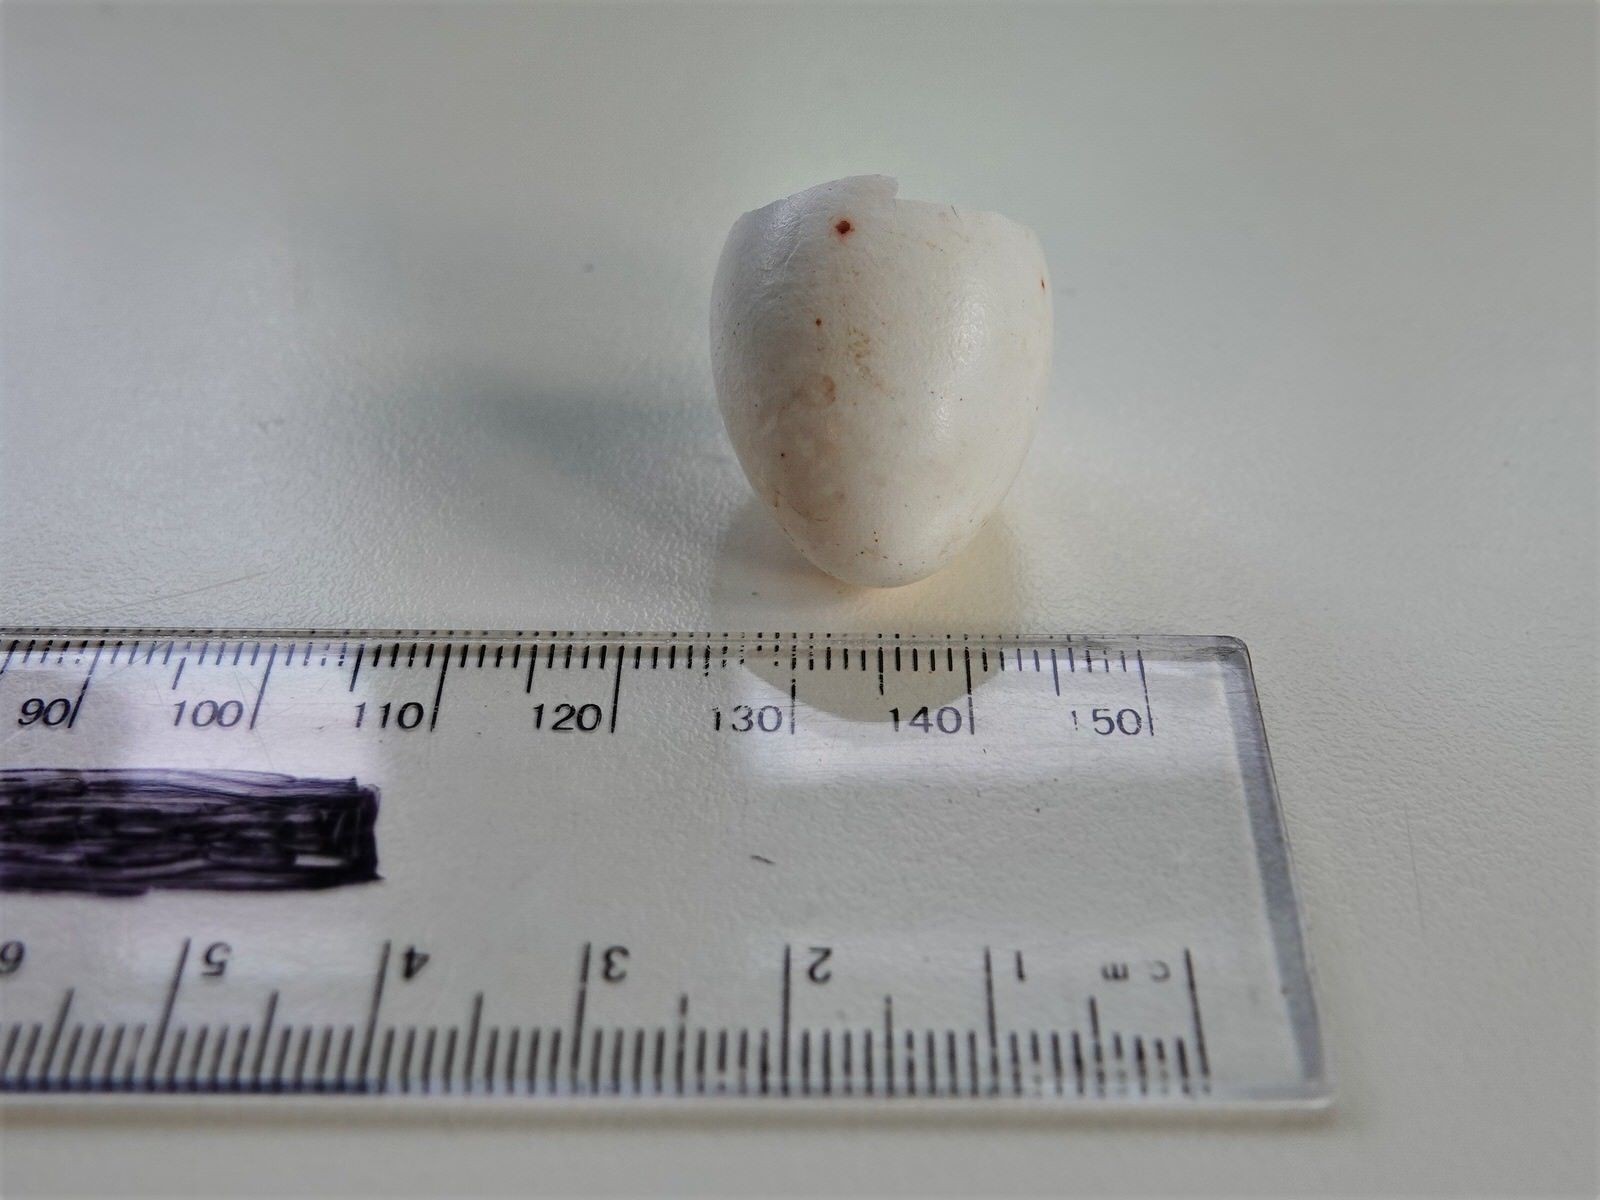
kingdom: Animalia
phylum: Chordata
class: Aves
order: Passeriformes
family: Meliphagidae
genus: Prosthemadera
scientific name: Prosthemadera novaeseelandiae
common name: Tui
